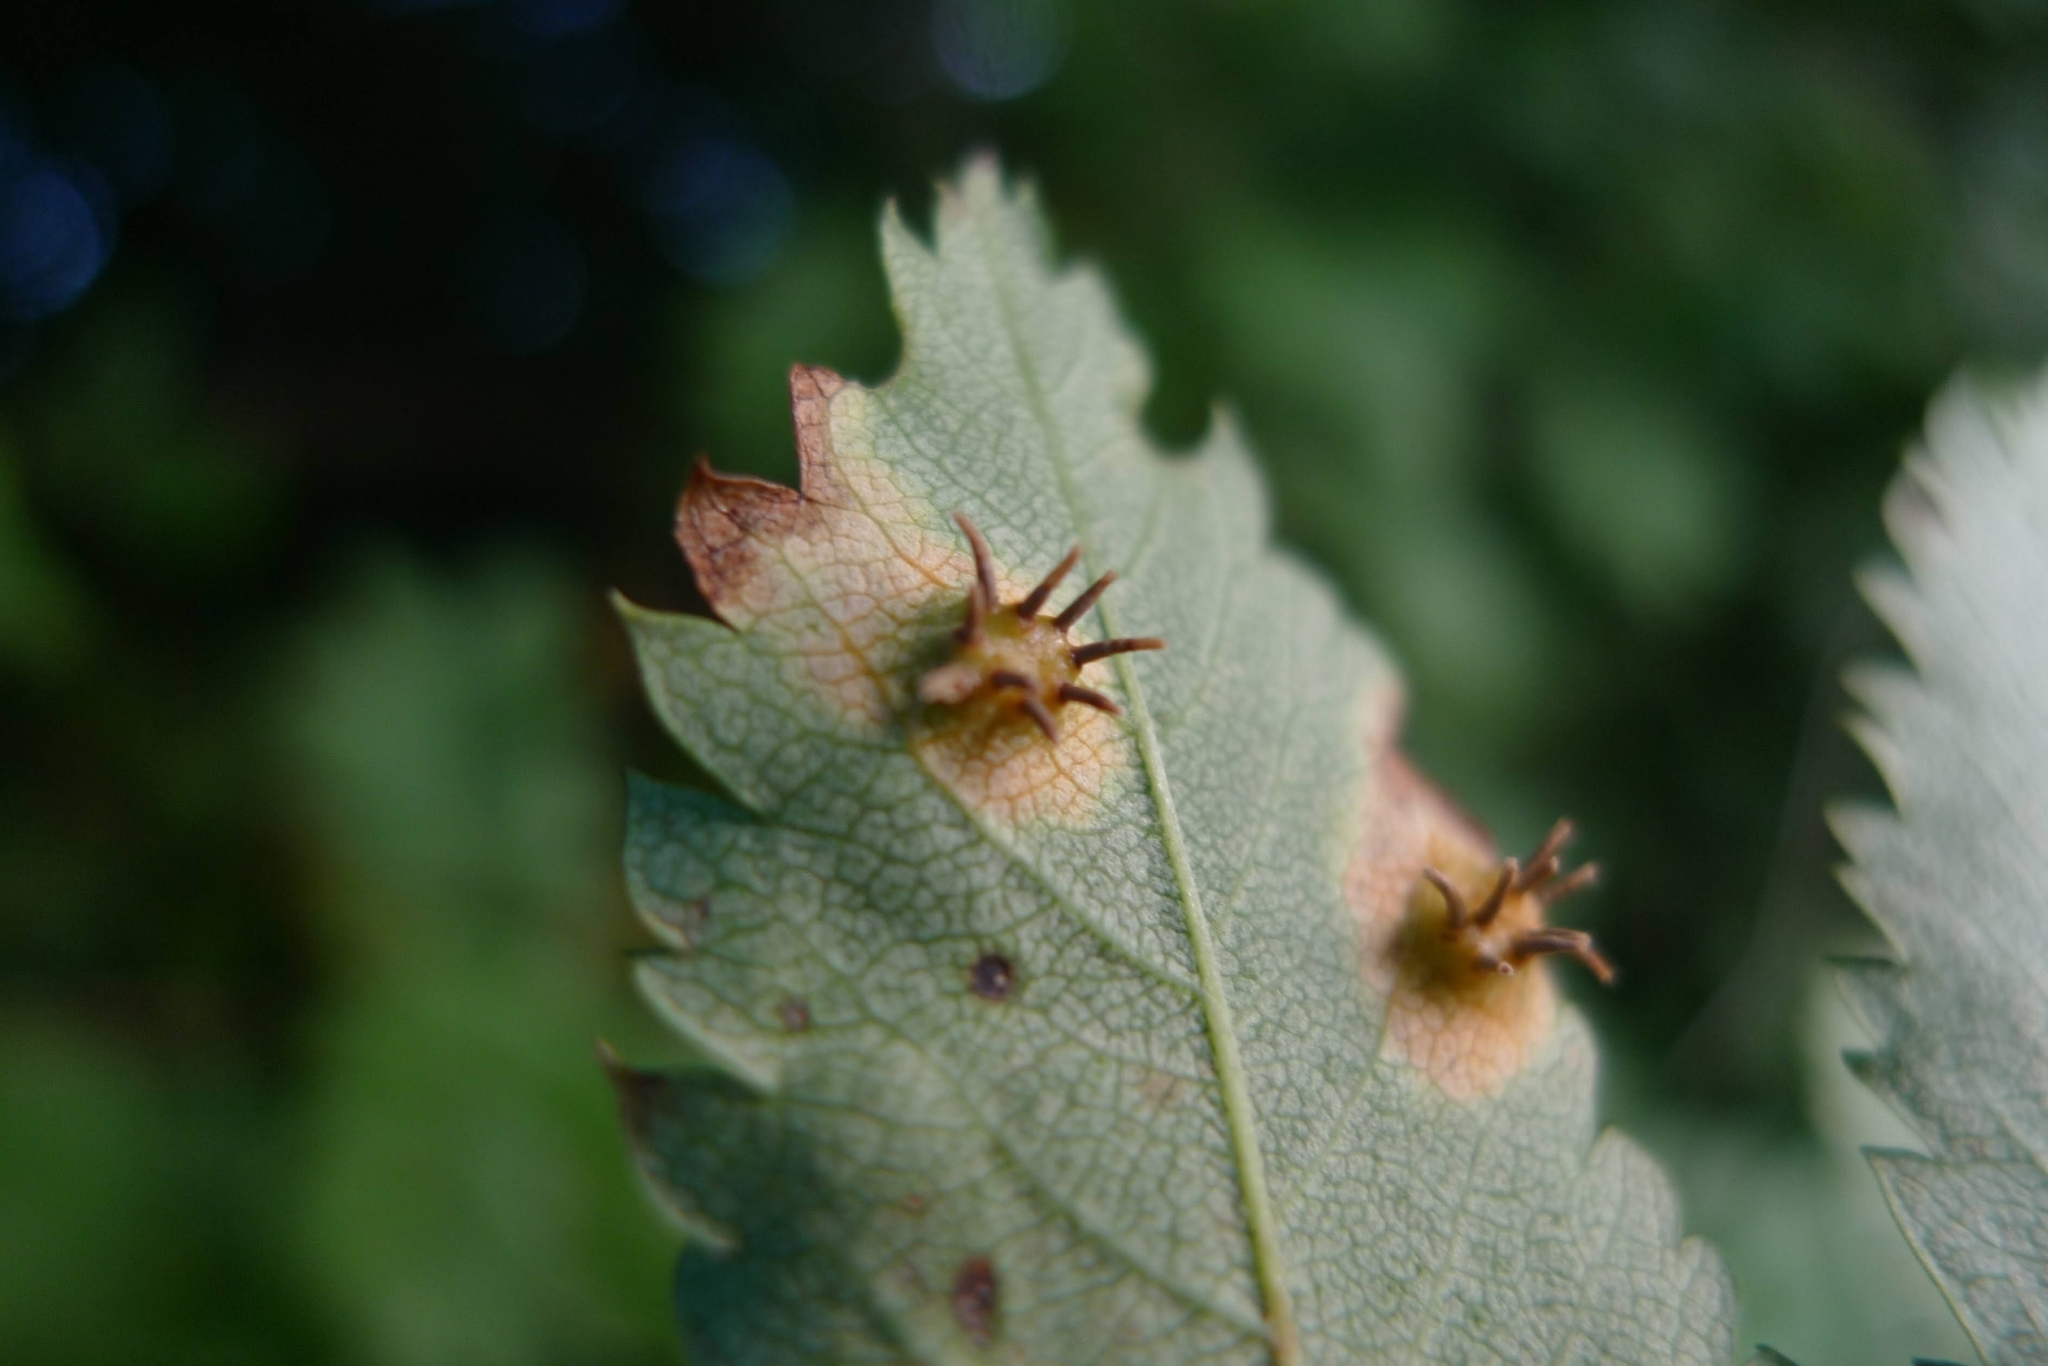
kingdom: Fungi
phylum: Basidiomycota
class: Pucciniomycetes
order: Pucciniales
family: Gymnosporangiaceae
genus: Gymnosporangium
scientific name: Gymnosporangium cornutum
